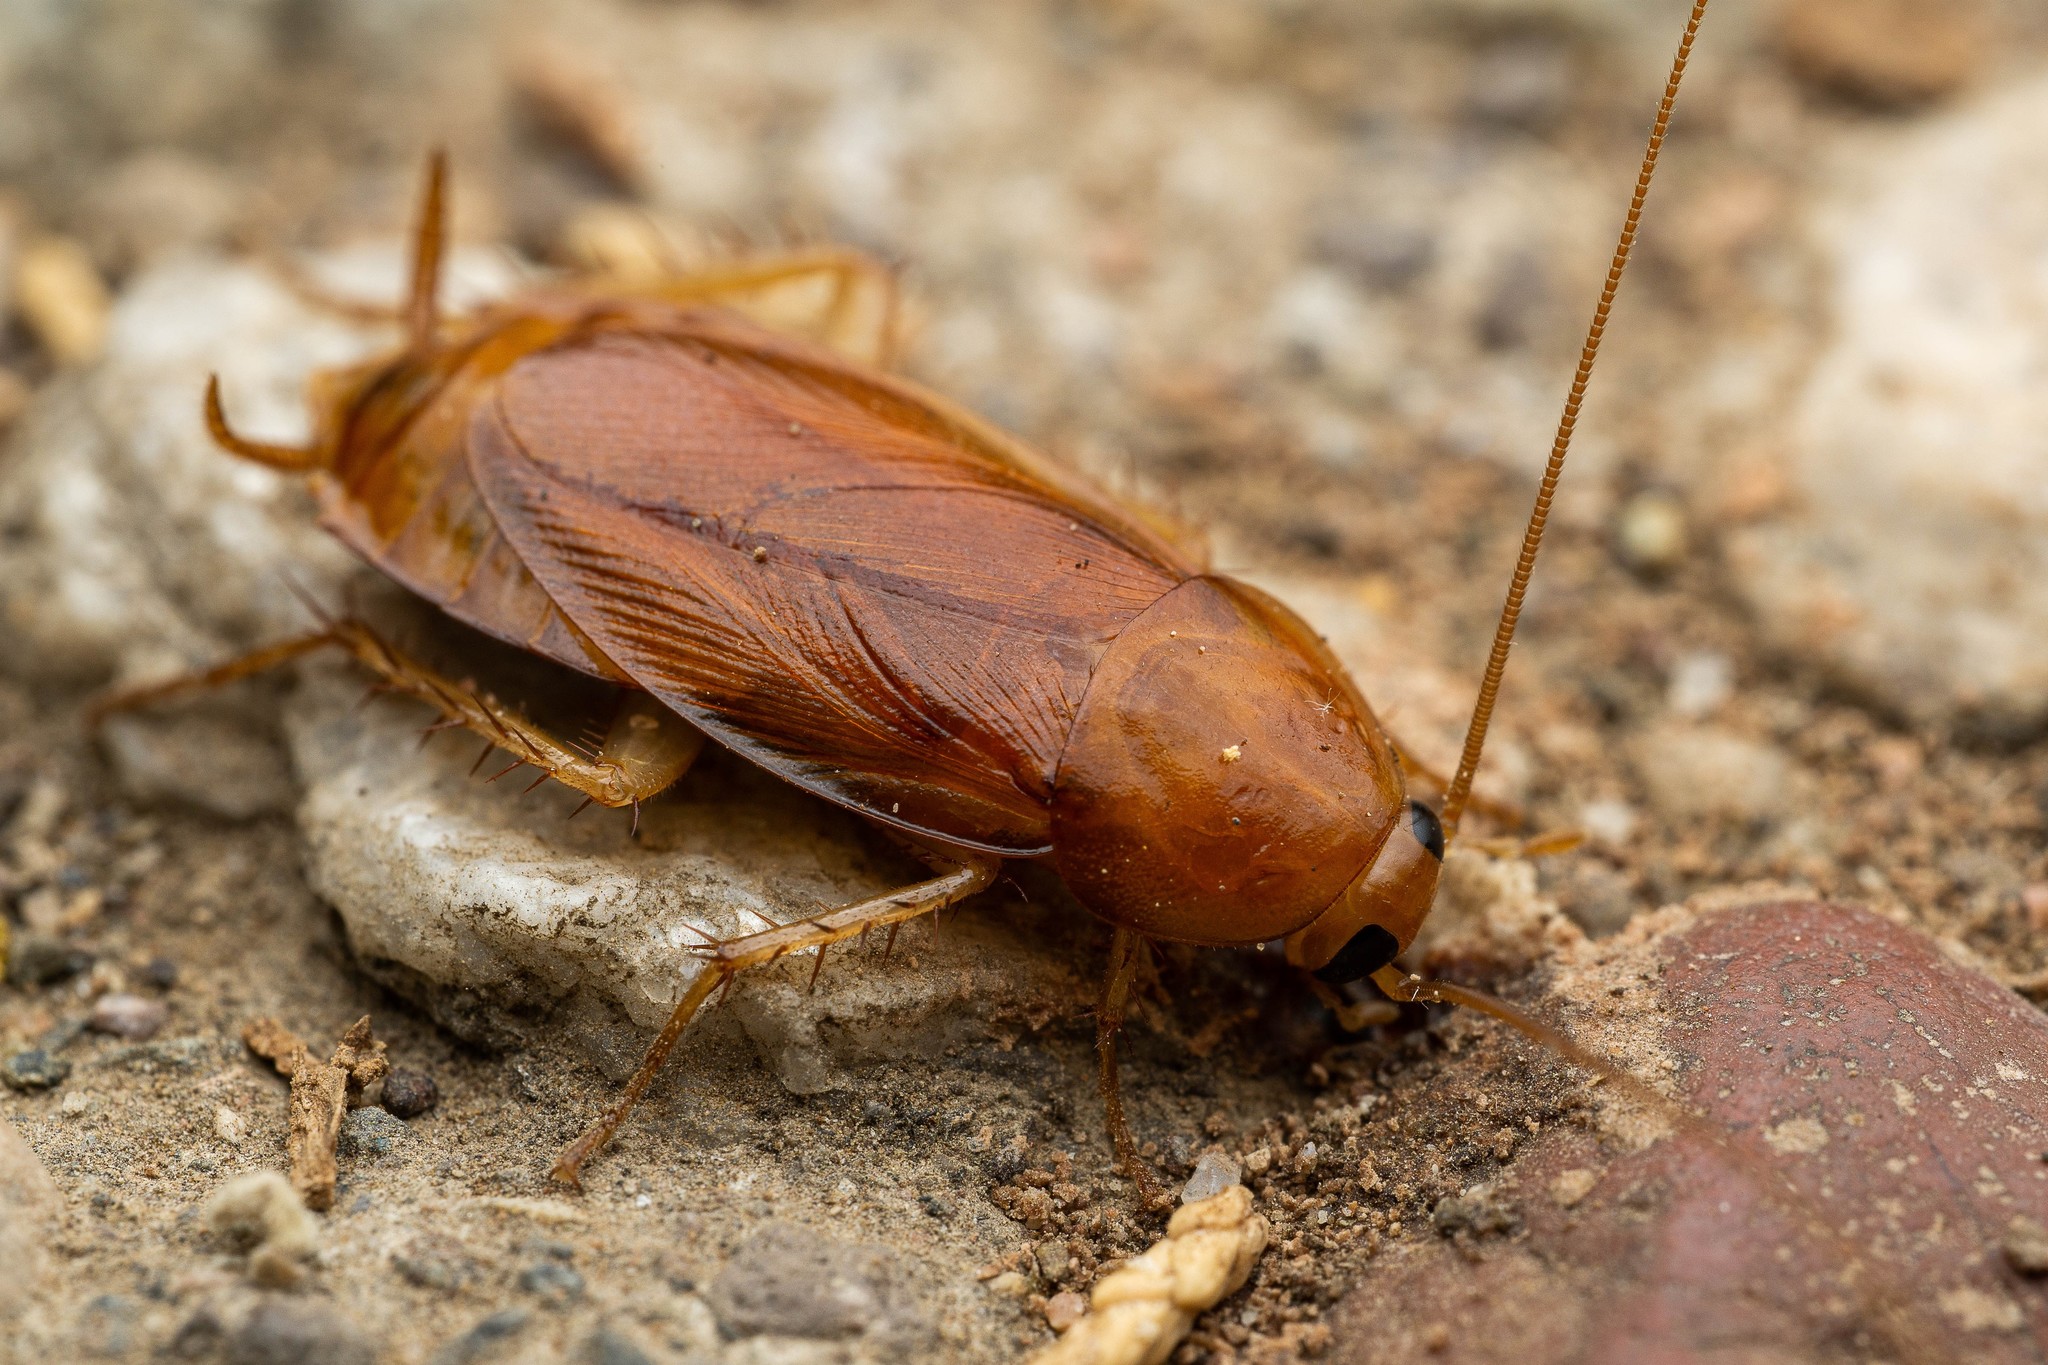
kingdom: Animalia
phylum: Arthropoda
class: Insecta
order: Blattodea
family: Ectobiidae
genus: Parcoblatta
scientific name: Parcoblatta notha
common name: Arizona wood cockroach
